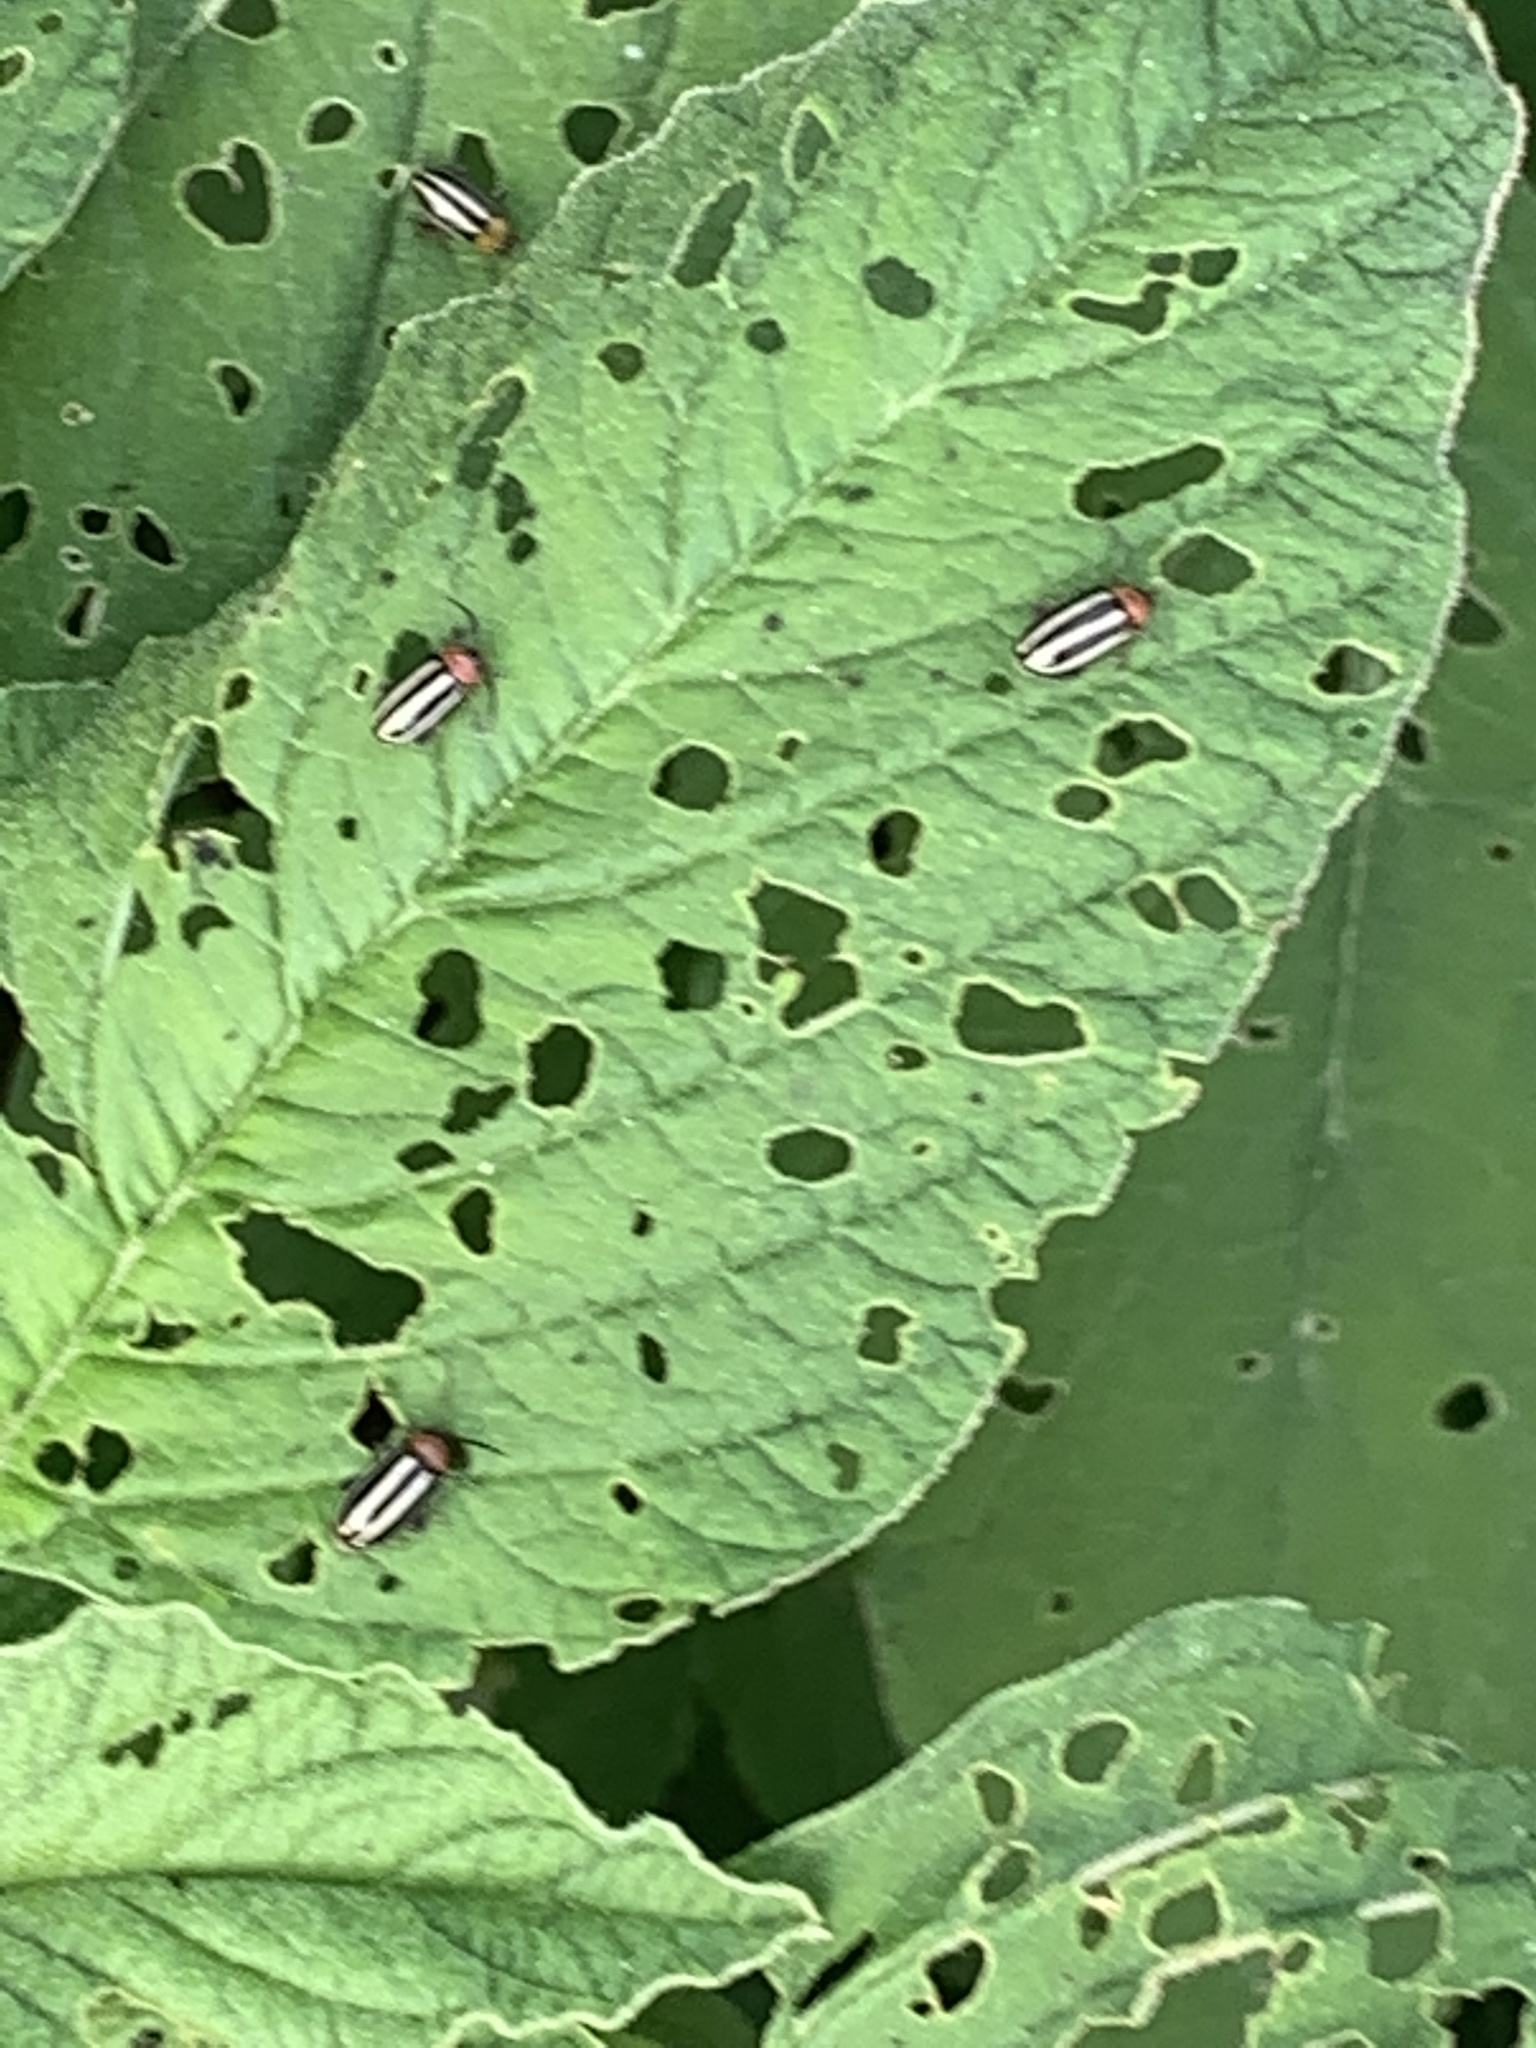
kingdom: Animalia
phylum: Arthropoda
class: Insecta
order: Coleoptera
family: Chrysomelidae
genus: Disonycha
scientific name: Disonycha glabrata
